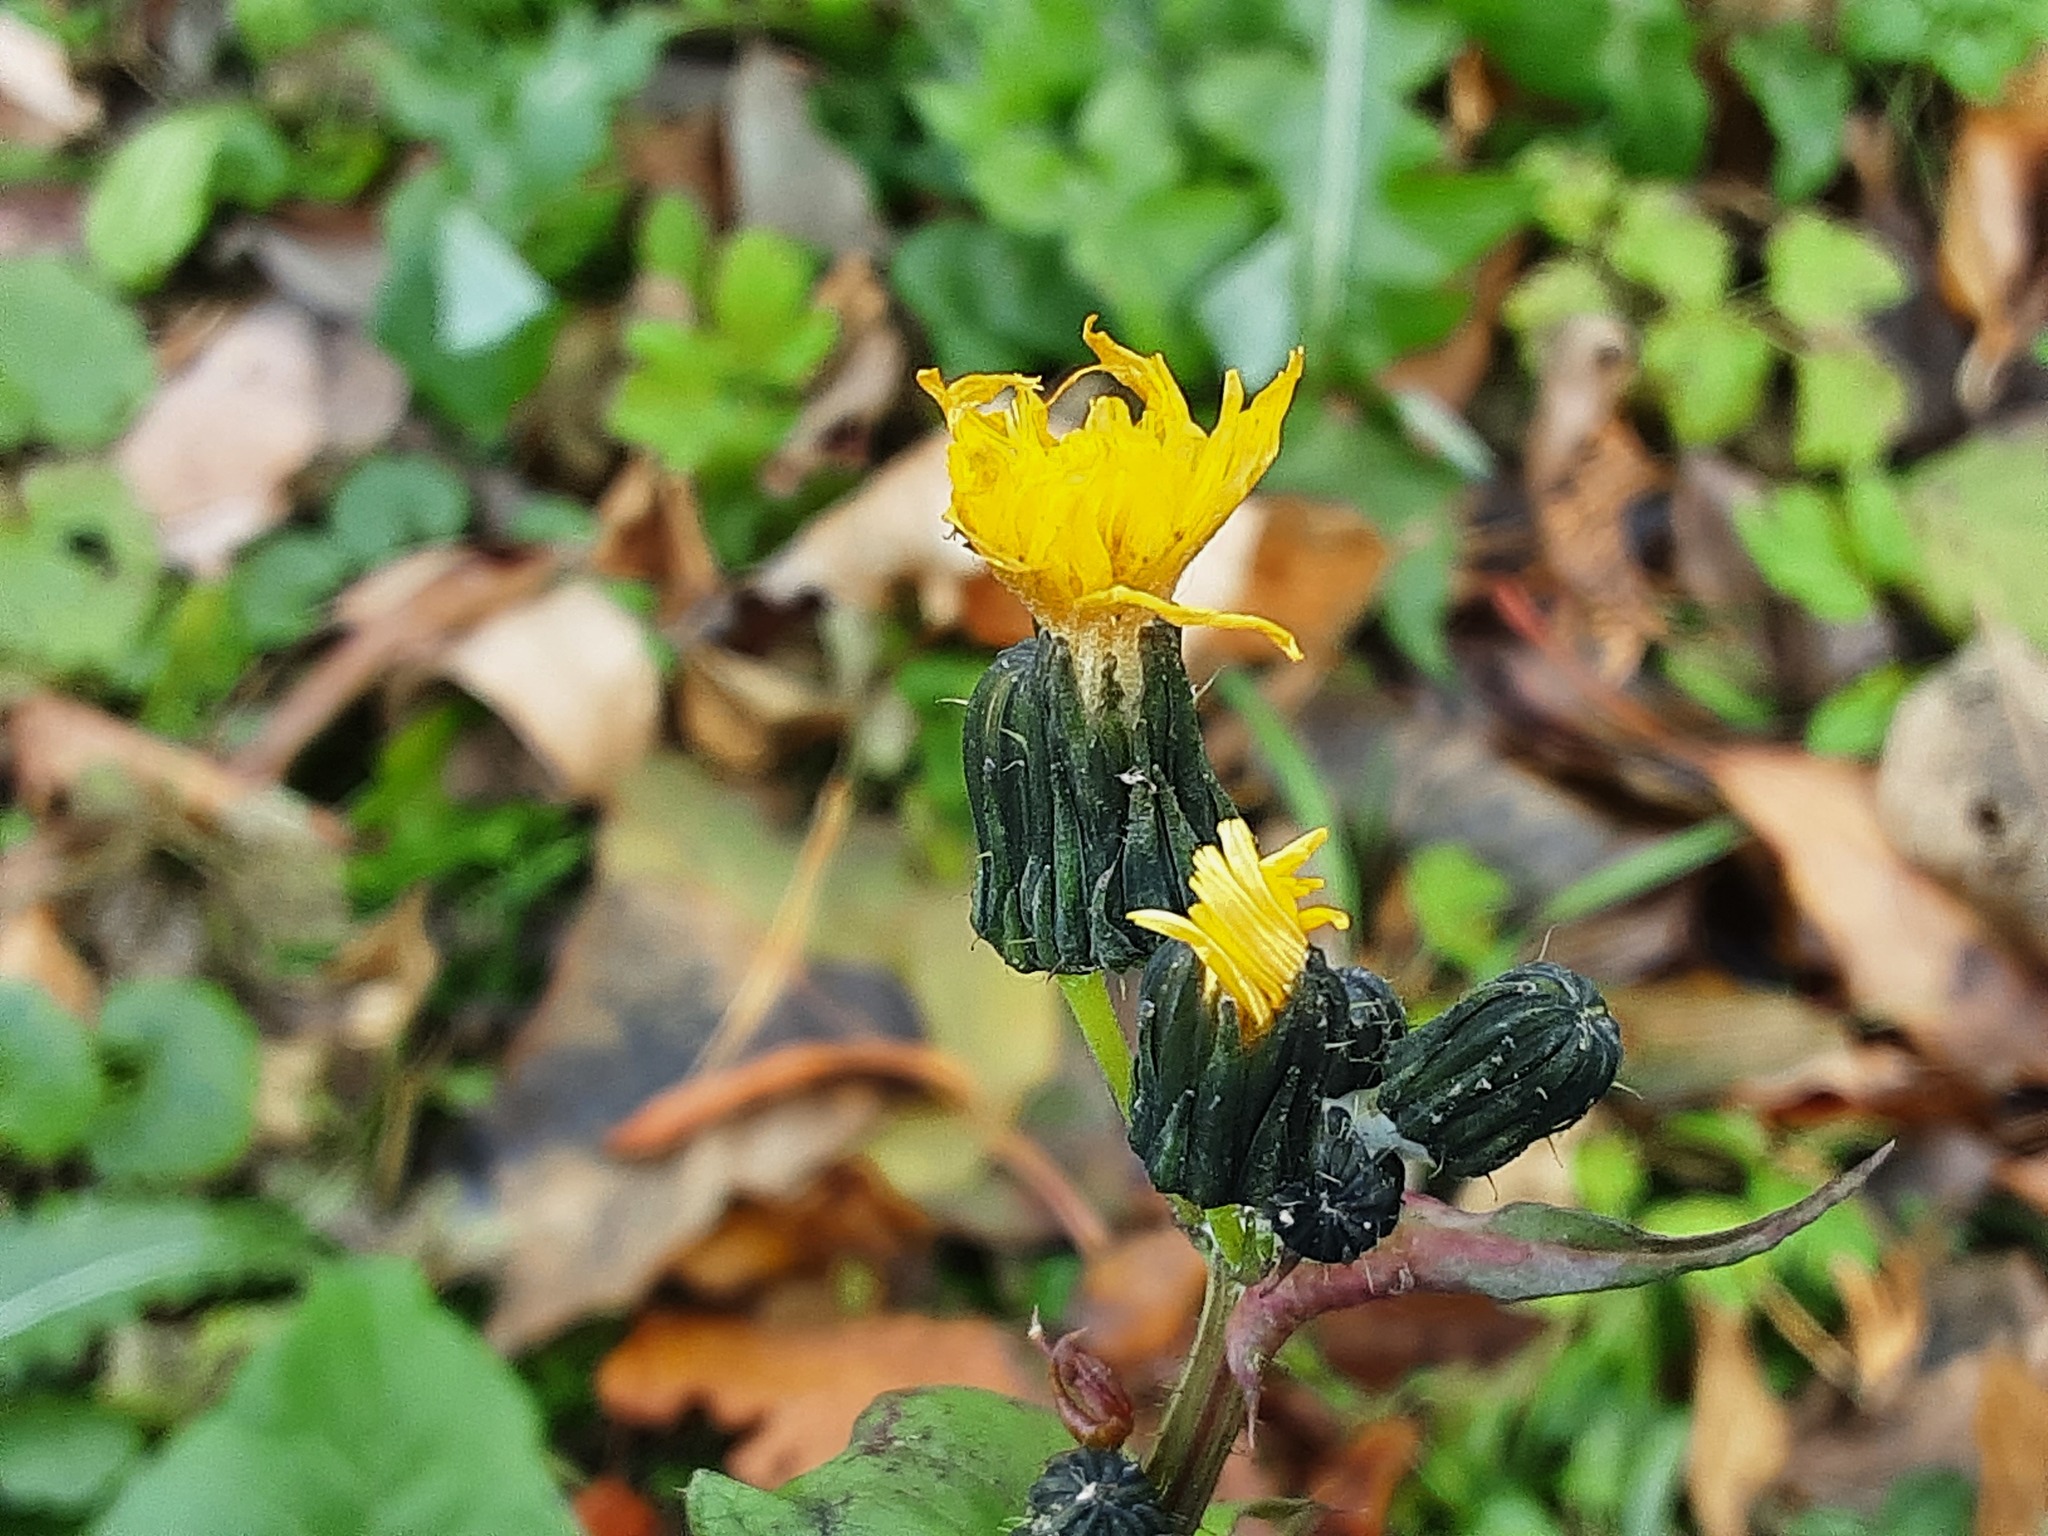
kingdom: Plantae
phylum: Tracheophyta
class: Magnoliopsida
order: Asterales
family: Asteraceae
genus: Sonchus
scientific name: Sonchus oleraceus
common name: Common sowthistle
